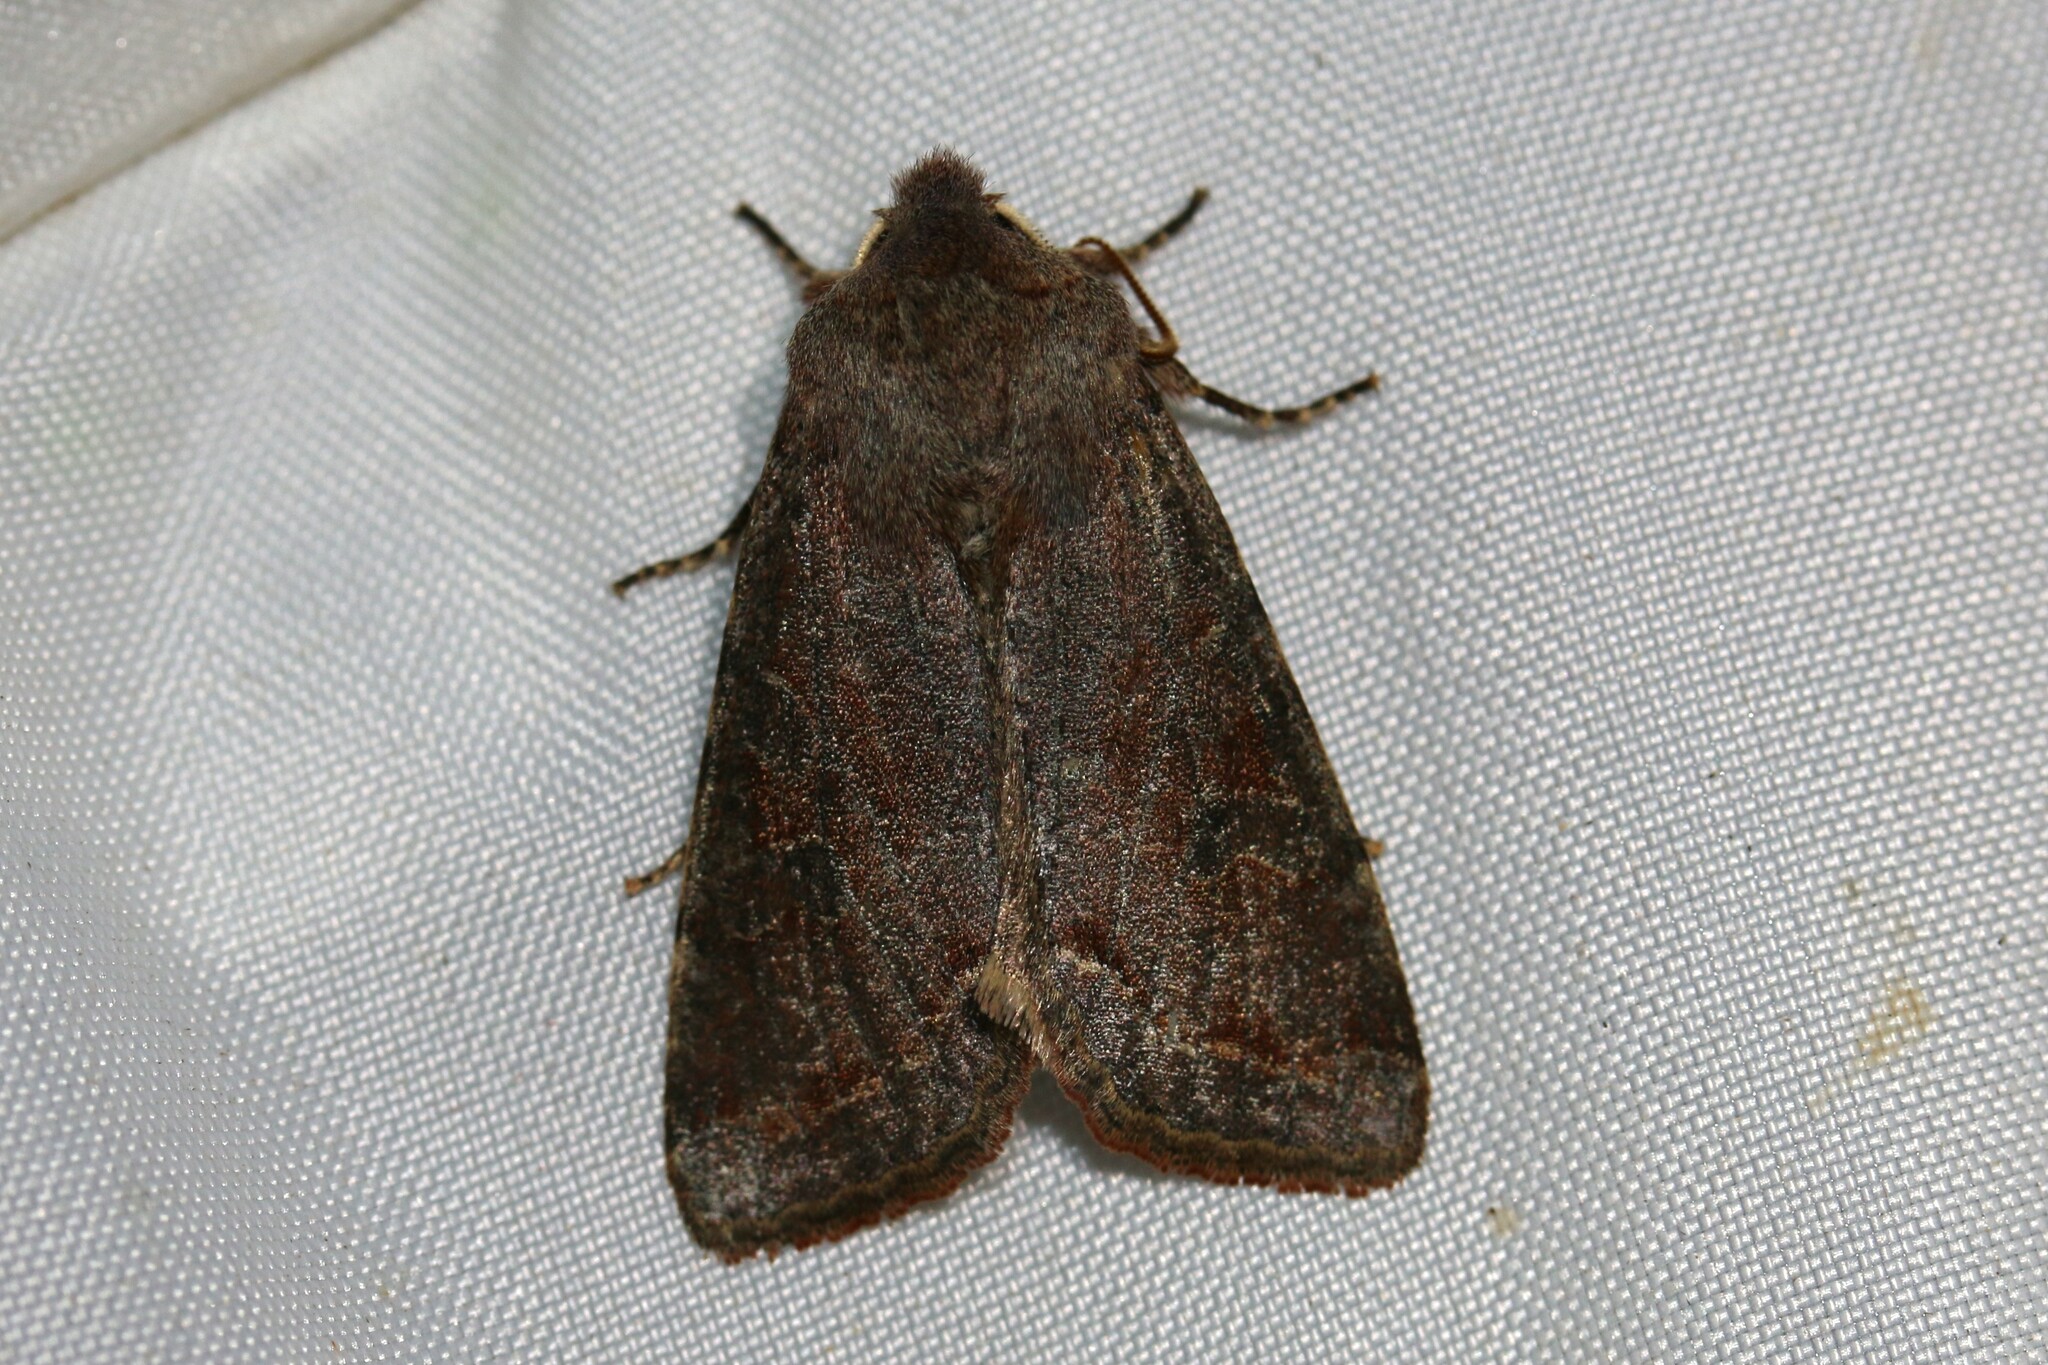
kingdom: Animalia
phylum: Arthropoda
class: Insecta
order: Lepidoptera
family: Noctuidae
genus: Orthosia
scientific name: Orthosia incerta
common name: Clouded drab
